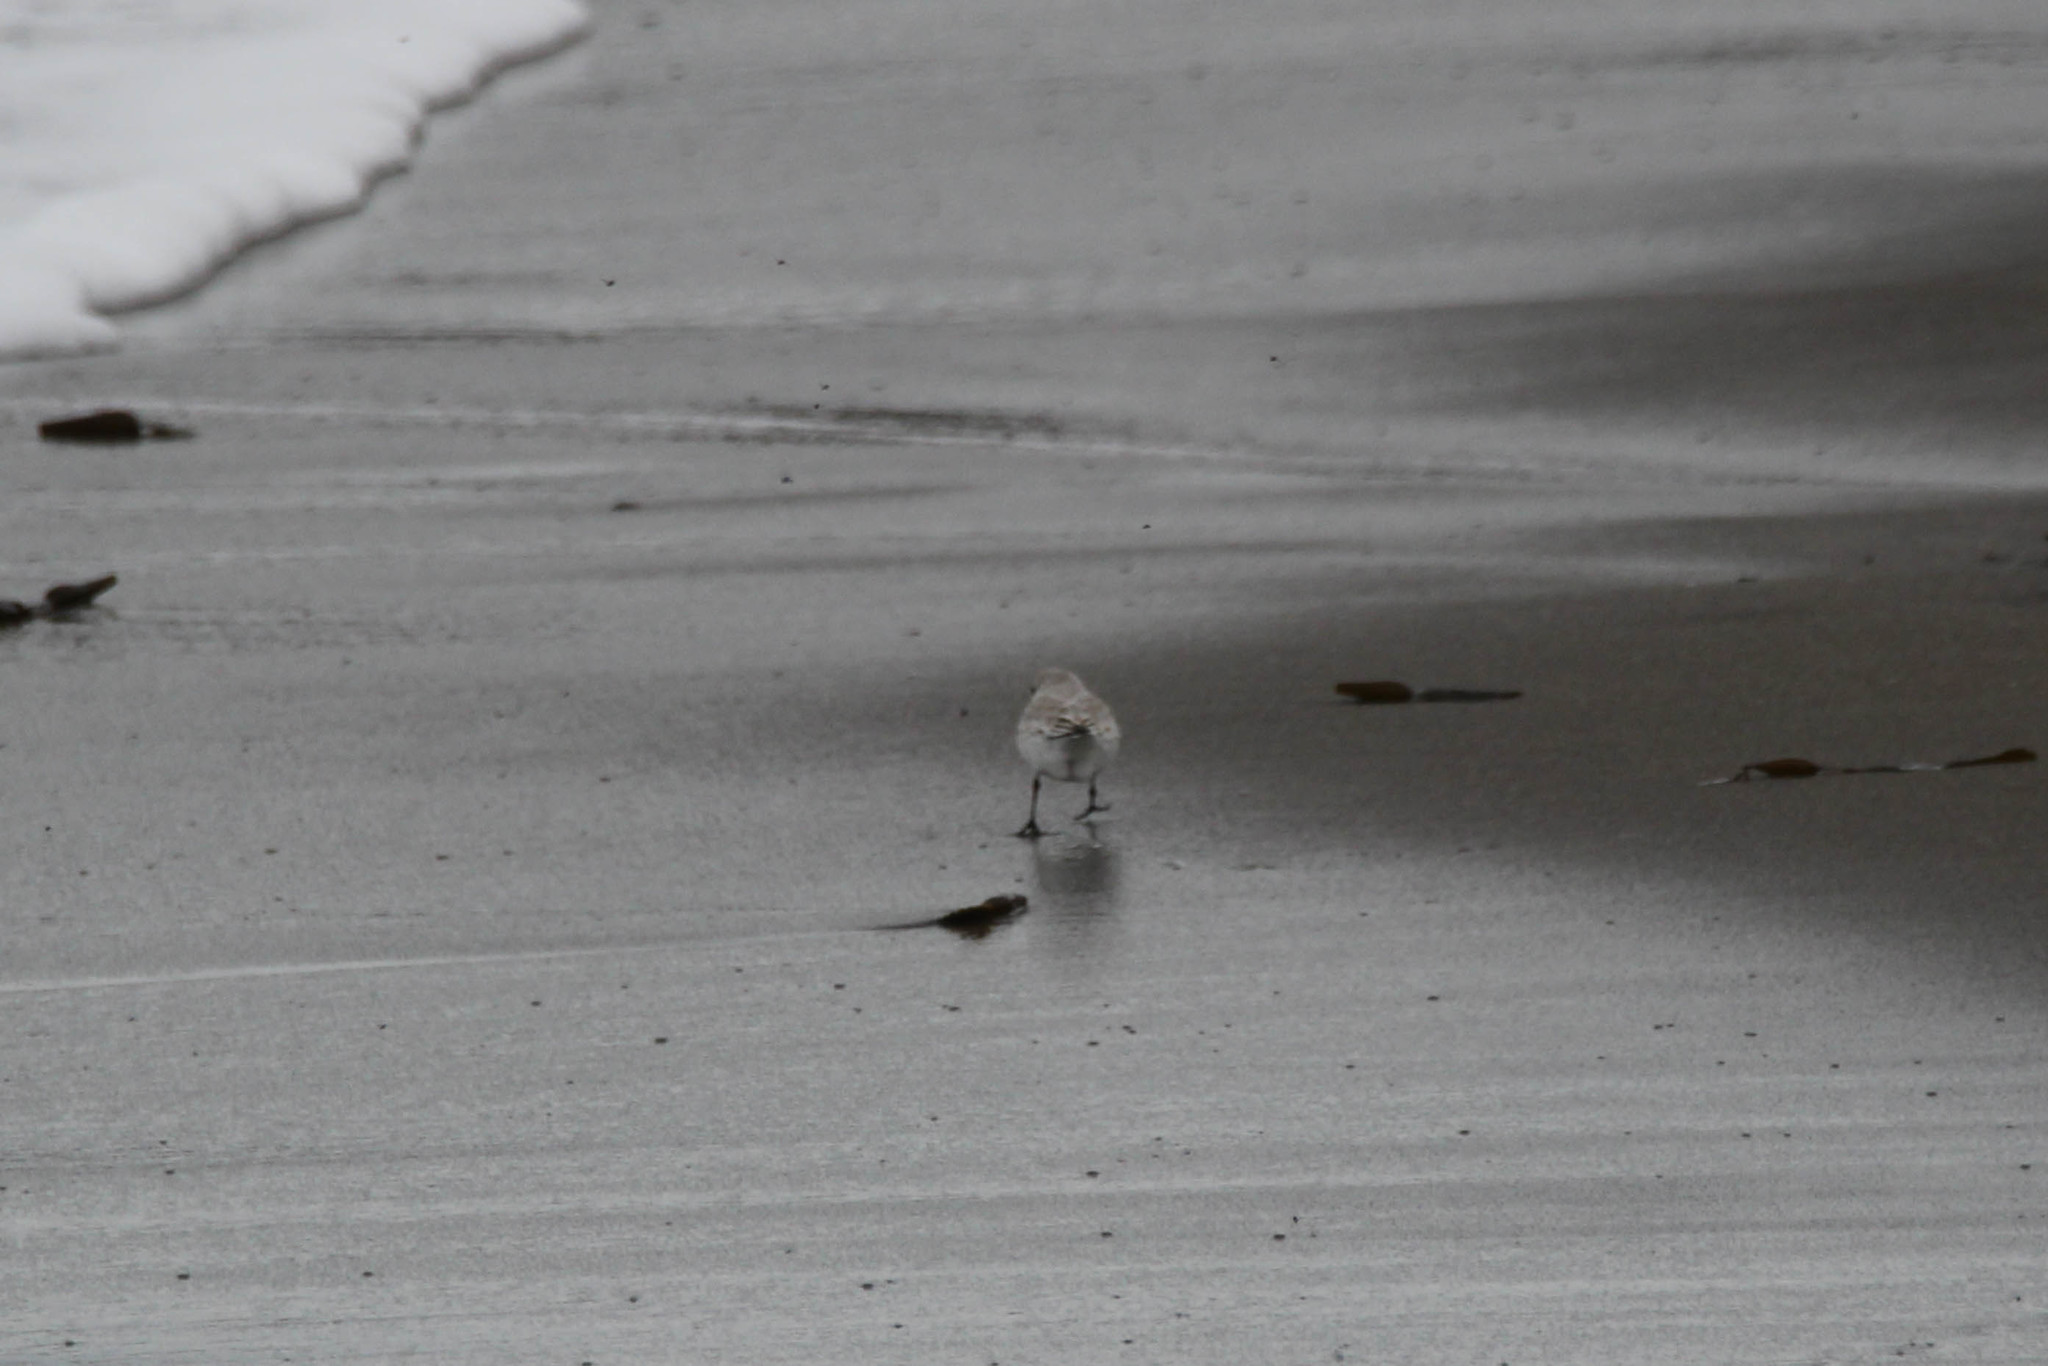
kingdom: Animalia
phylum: Chordata
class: Aves
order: Charadriiformes
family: Scolopacidae
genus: Calidris
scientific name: Calidris alba
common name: Sanderling
